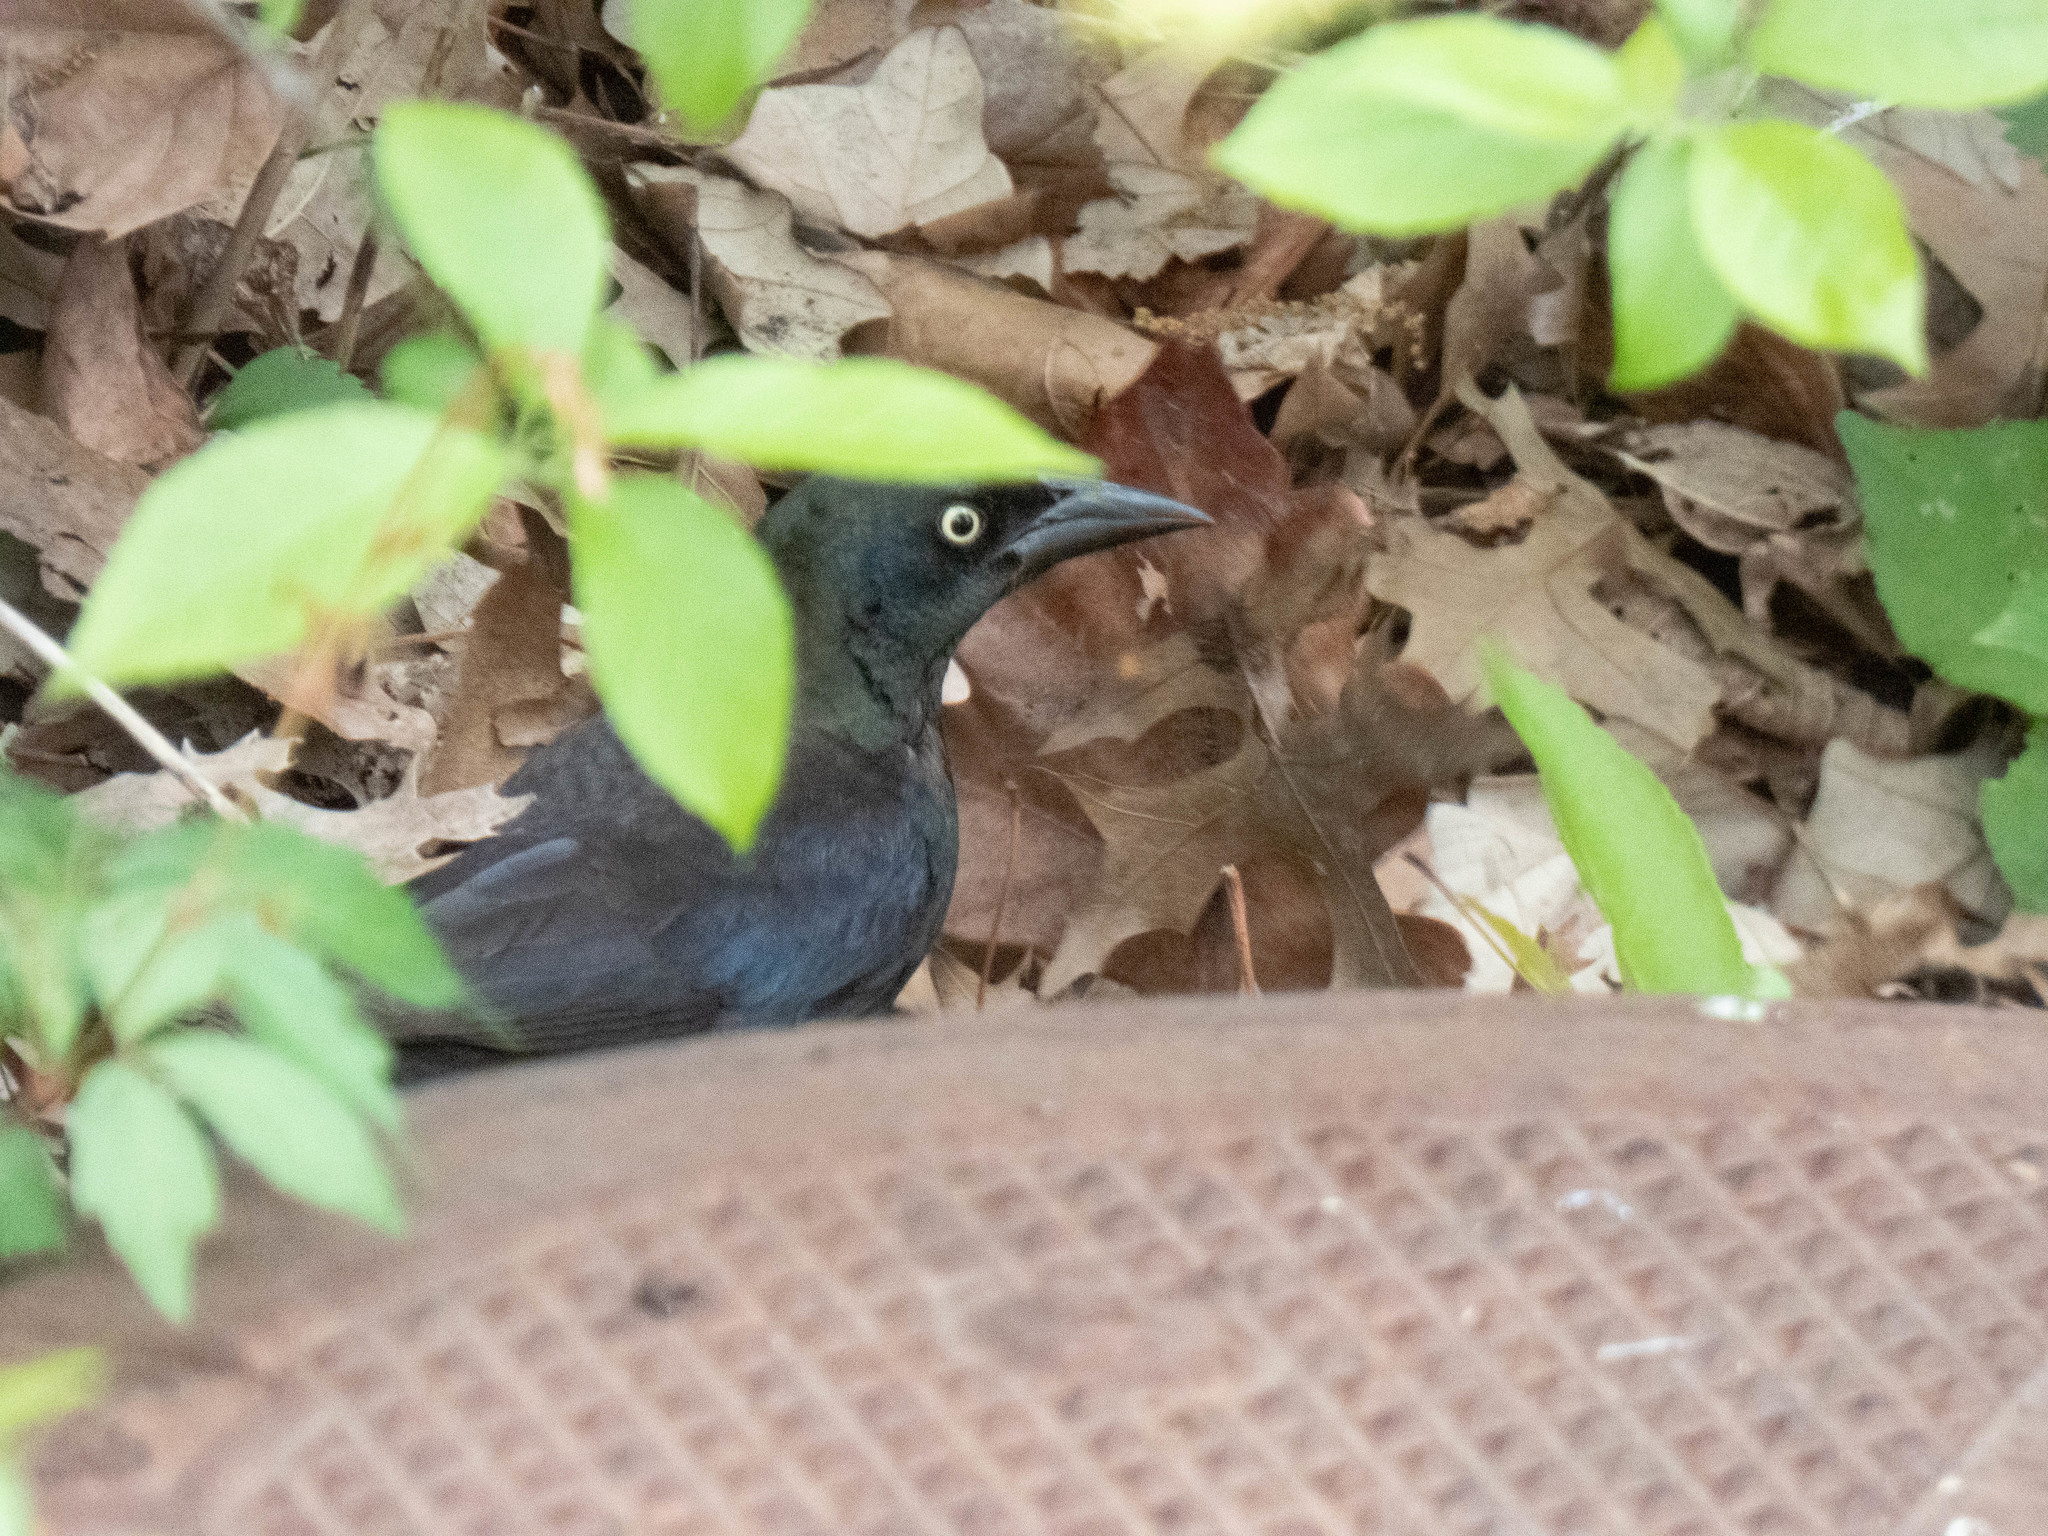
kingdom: Animalia
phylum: Chordata
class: Aves
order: Passeriformes
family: Icteridae
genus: Quiscalus
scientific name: Quiscalus quiscula
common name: Common grackle
